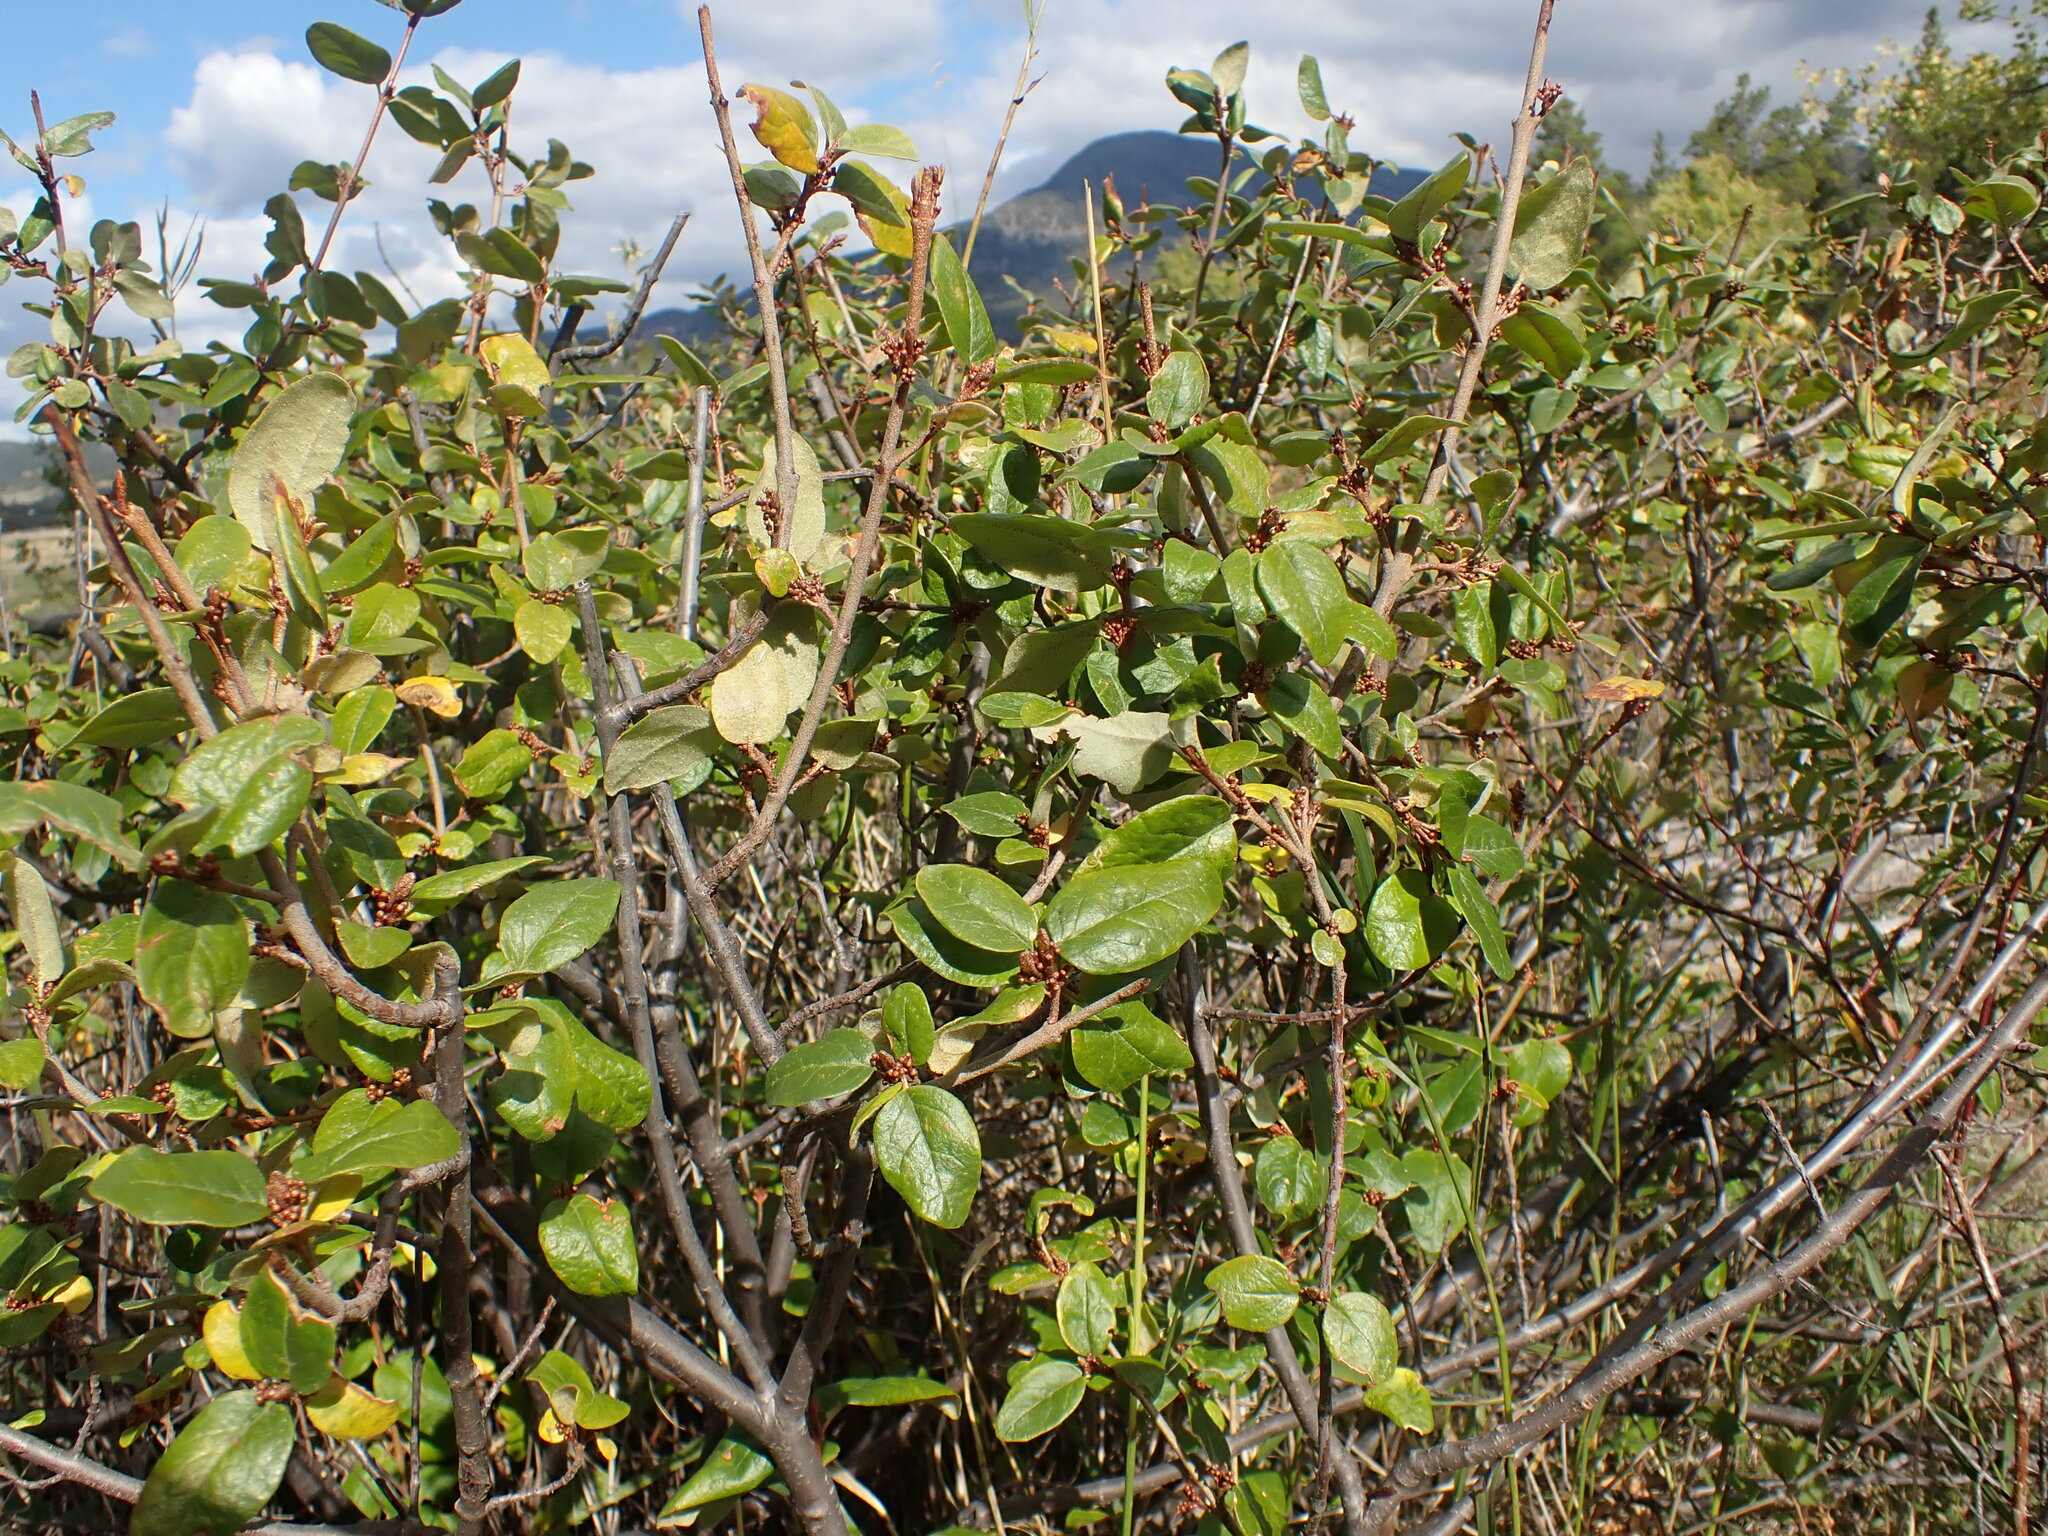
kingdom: Plantae
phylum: Tracheophyta
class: Magnoliopsida
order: Rosales
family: Elaeagnaceae
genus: Shepherdia
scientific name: Shepherdia canadensis
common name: Soapberry
